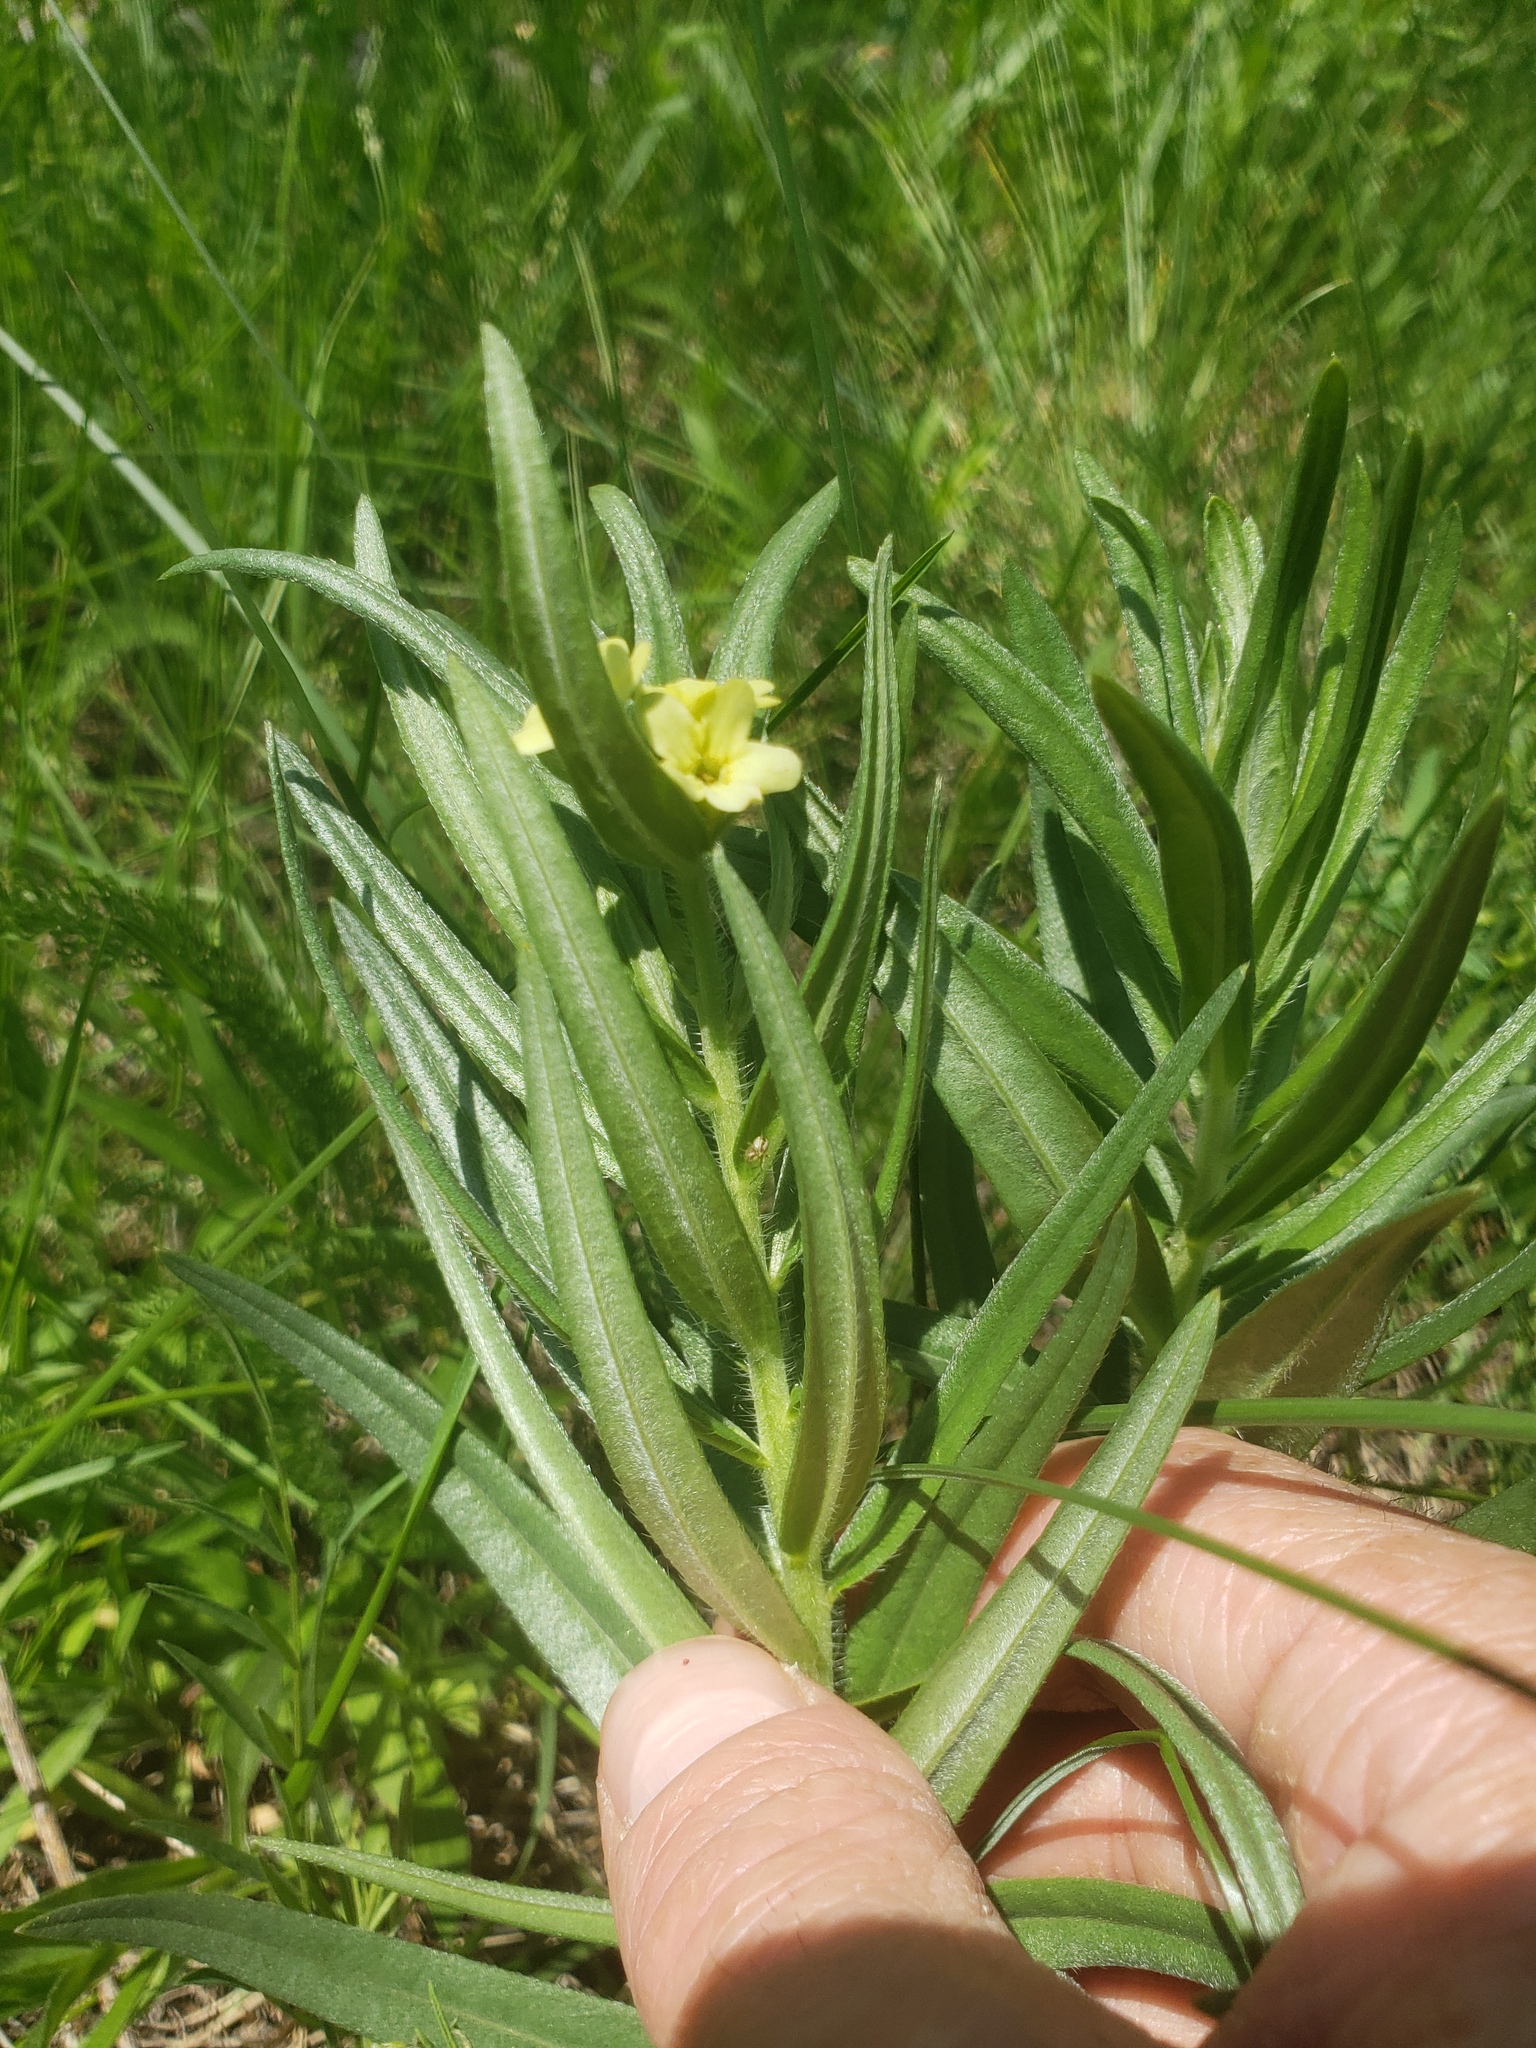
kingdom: Plantae
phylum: Tracheophyta
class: Magnoliopsida
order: Boraginales
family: Boraginaceae
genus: Lithospermum
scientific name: Lithospermum ruderale
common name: Western gromwell
